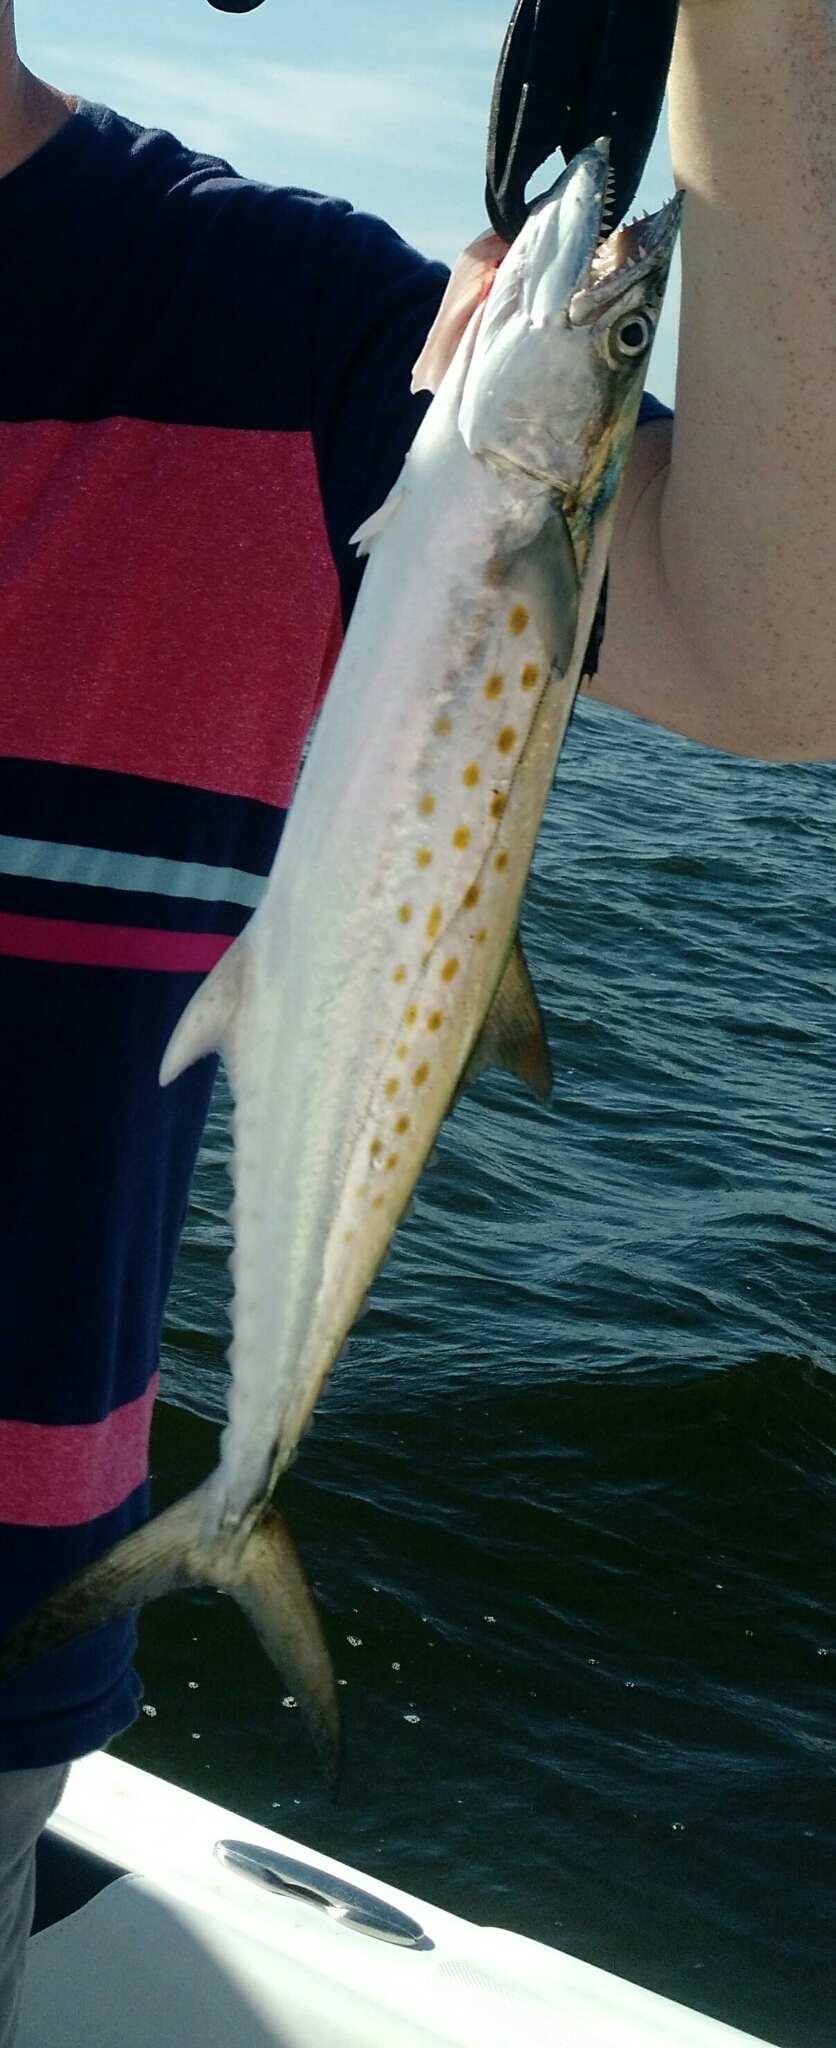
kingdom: Animalia
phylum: Chordata
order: Perciformes
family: Scombridae
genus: Scomberomorus
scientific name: Scomberomorus maculatus
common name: Spanish mackerel
